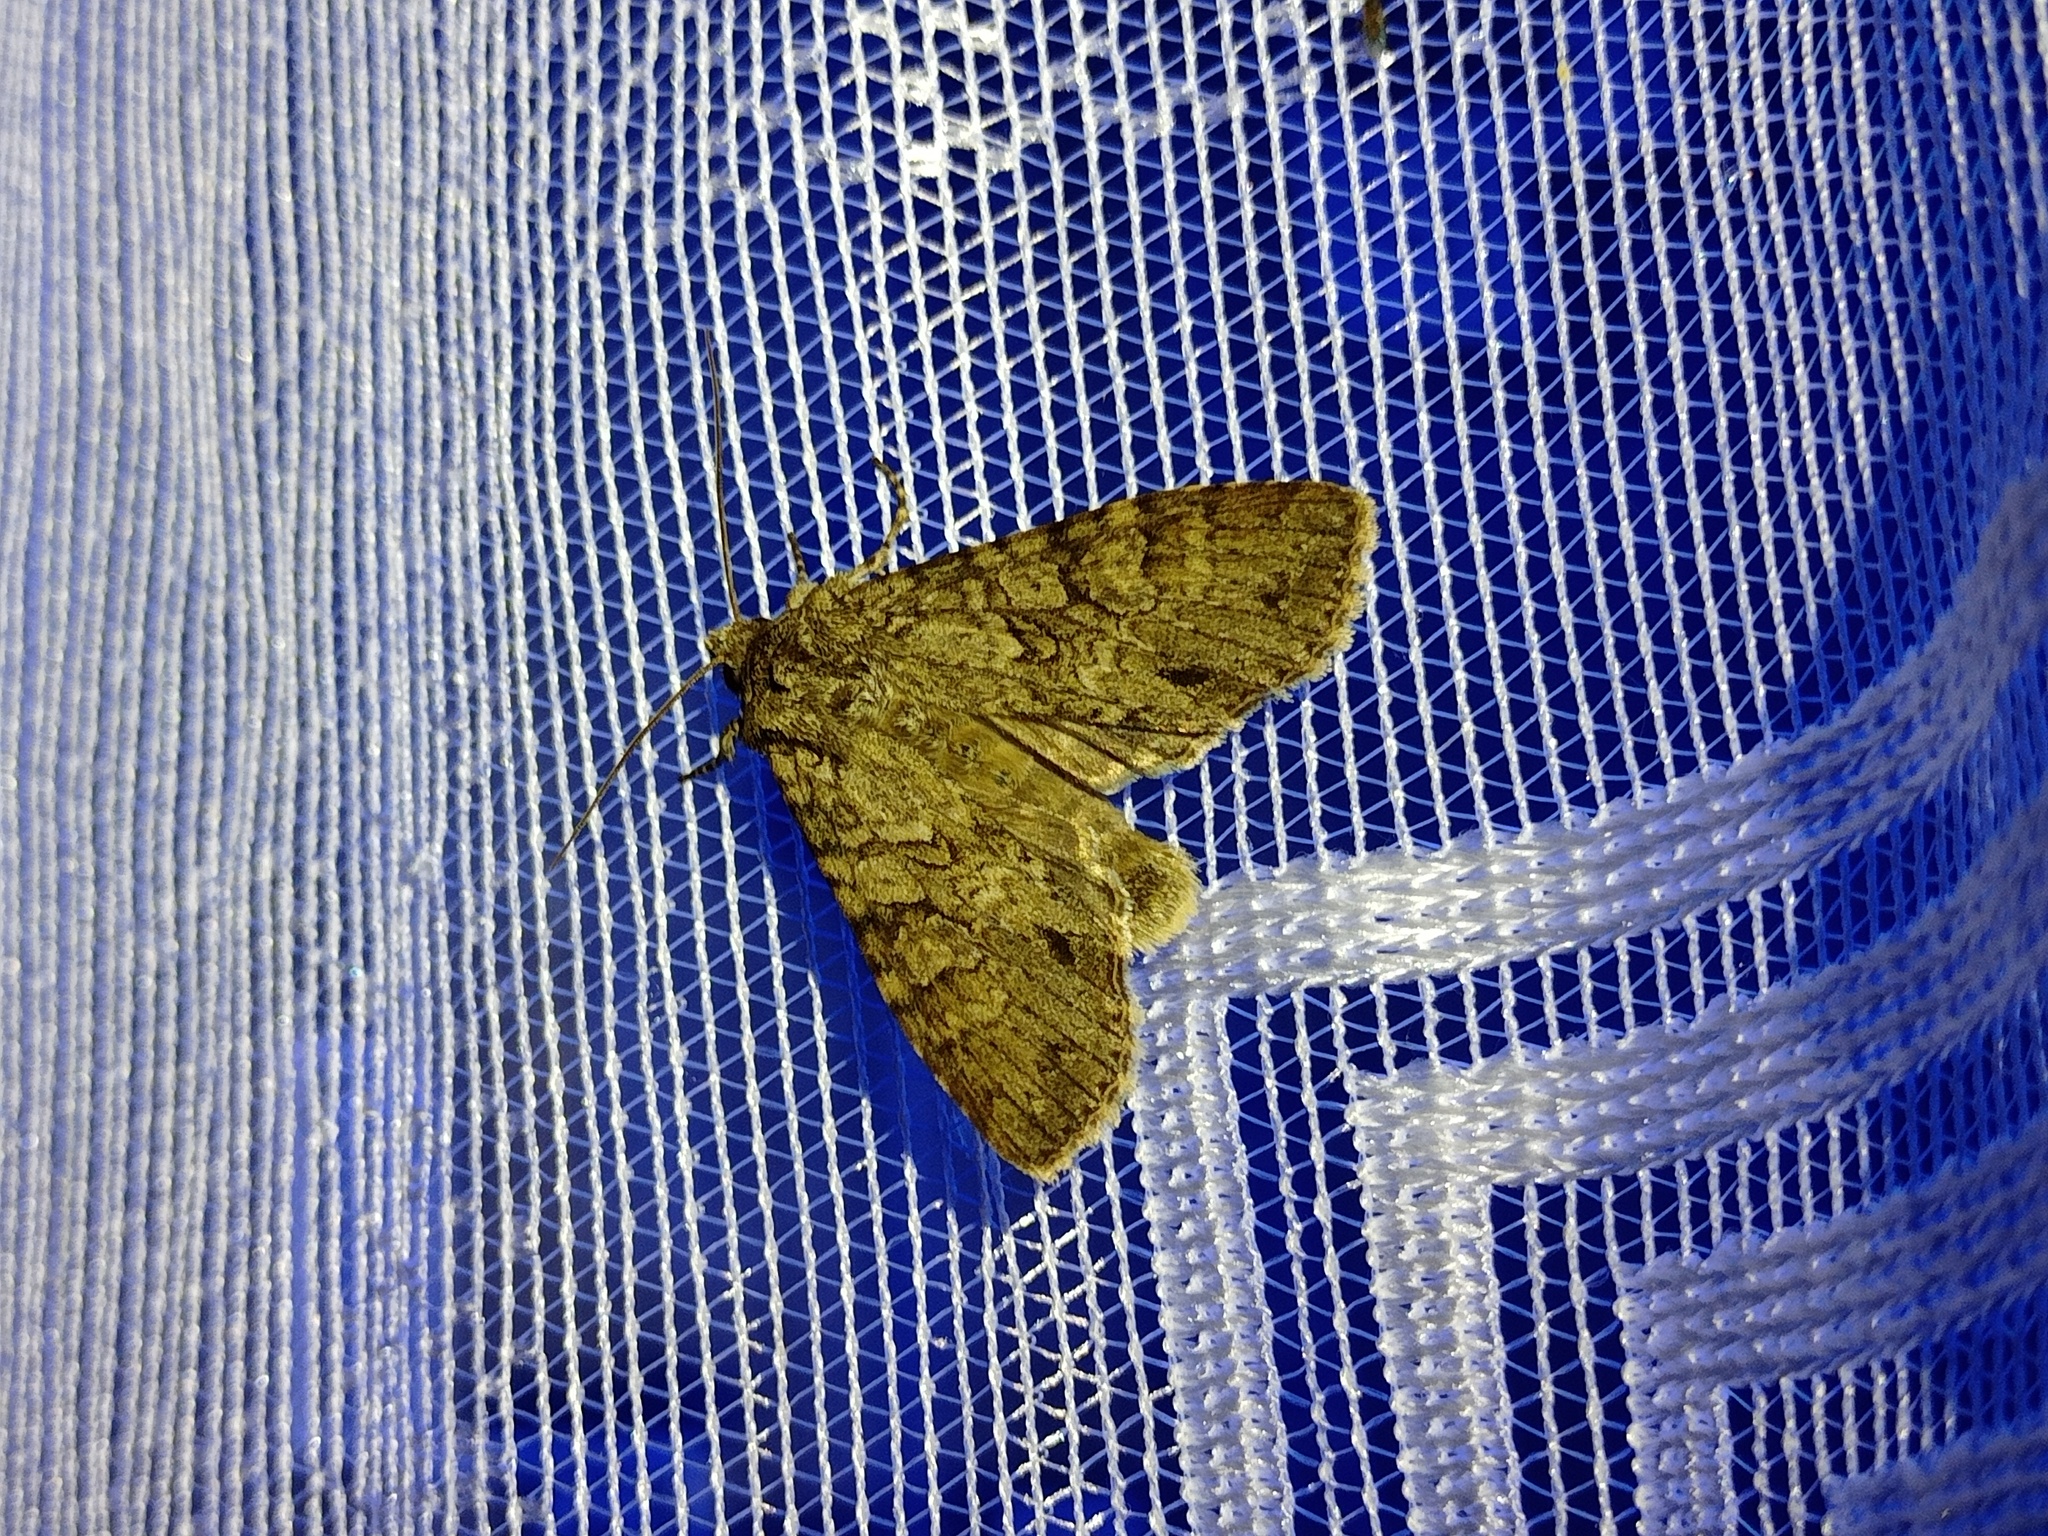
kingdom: Animalia
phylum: Arthropoda
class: Insecta
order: Lepidoptera
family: Noctuidae
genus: Polia
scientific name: Polia nebulosa
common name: Grey arches
